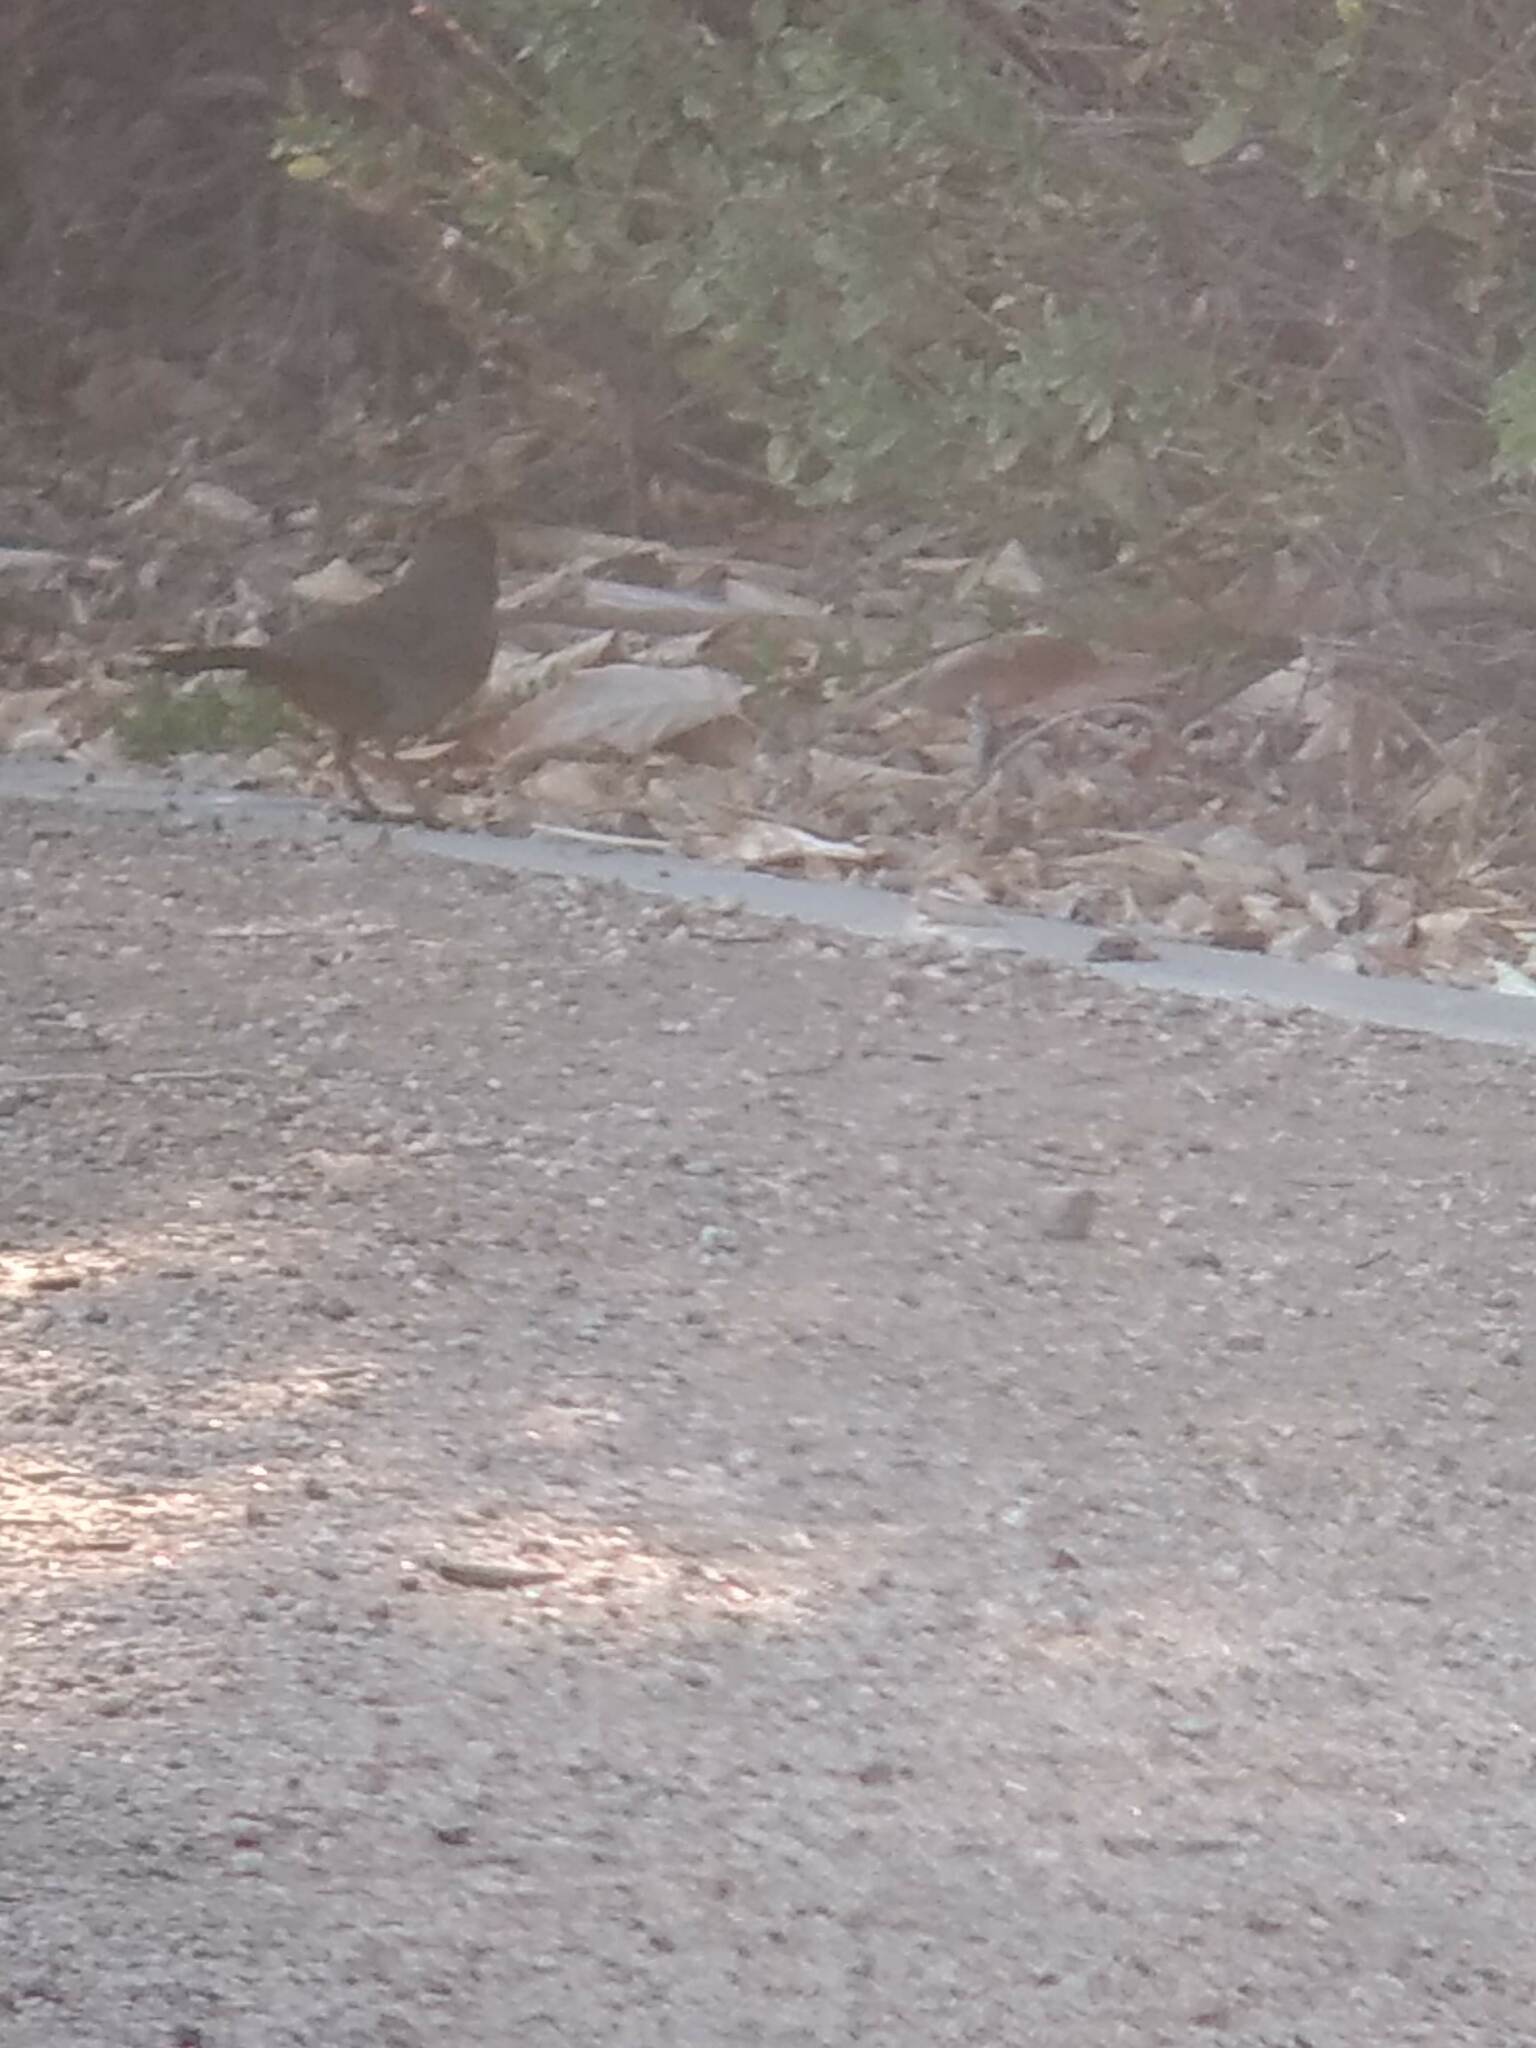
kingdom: Animalia
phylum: Chordata
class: Aves
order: Passeriformes
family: Passerellidae
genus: Melozone
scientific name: Melozone crissalis
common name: California towhee
